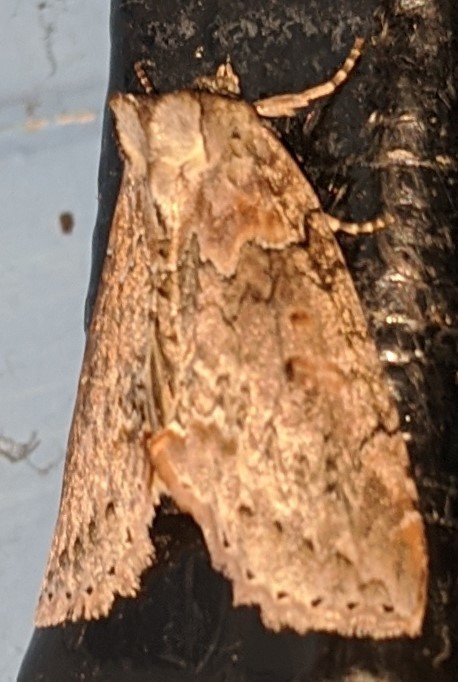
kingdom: Animalia
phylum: Arthropoda
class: Insecta
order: Lepidoptera
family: Drepanidae
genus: Pseudothyatira
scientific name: Pseudothyatira cymatophoroides
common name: Tufted thyatirid moth
